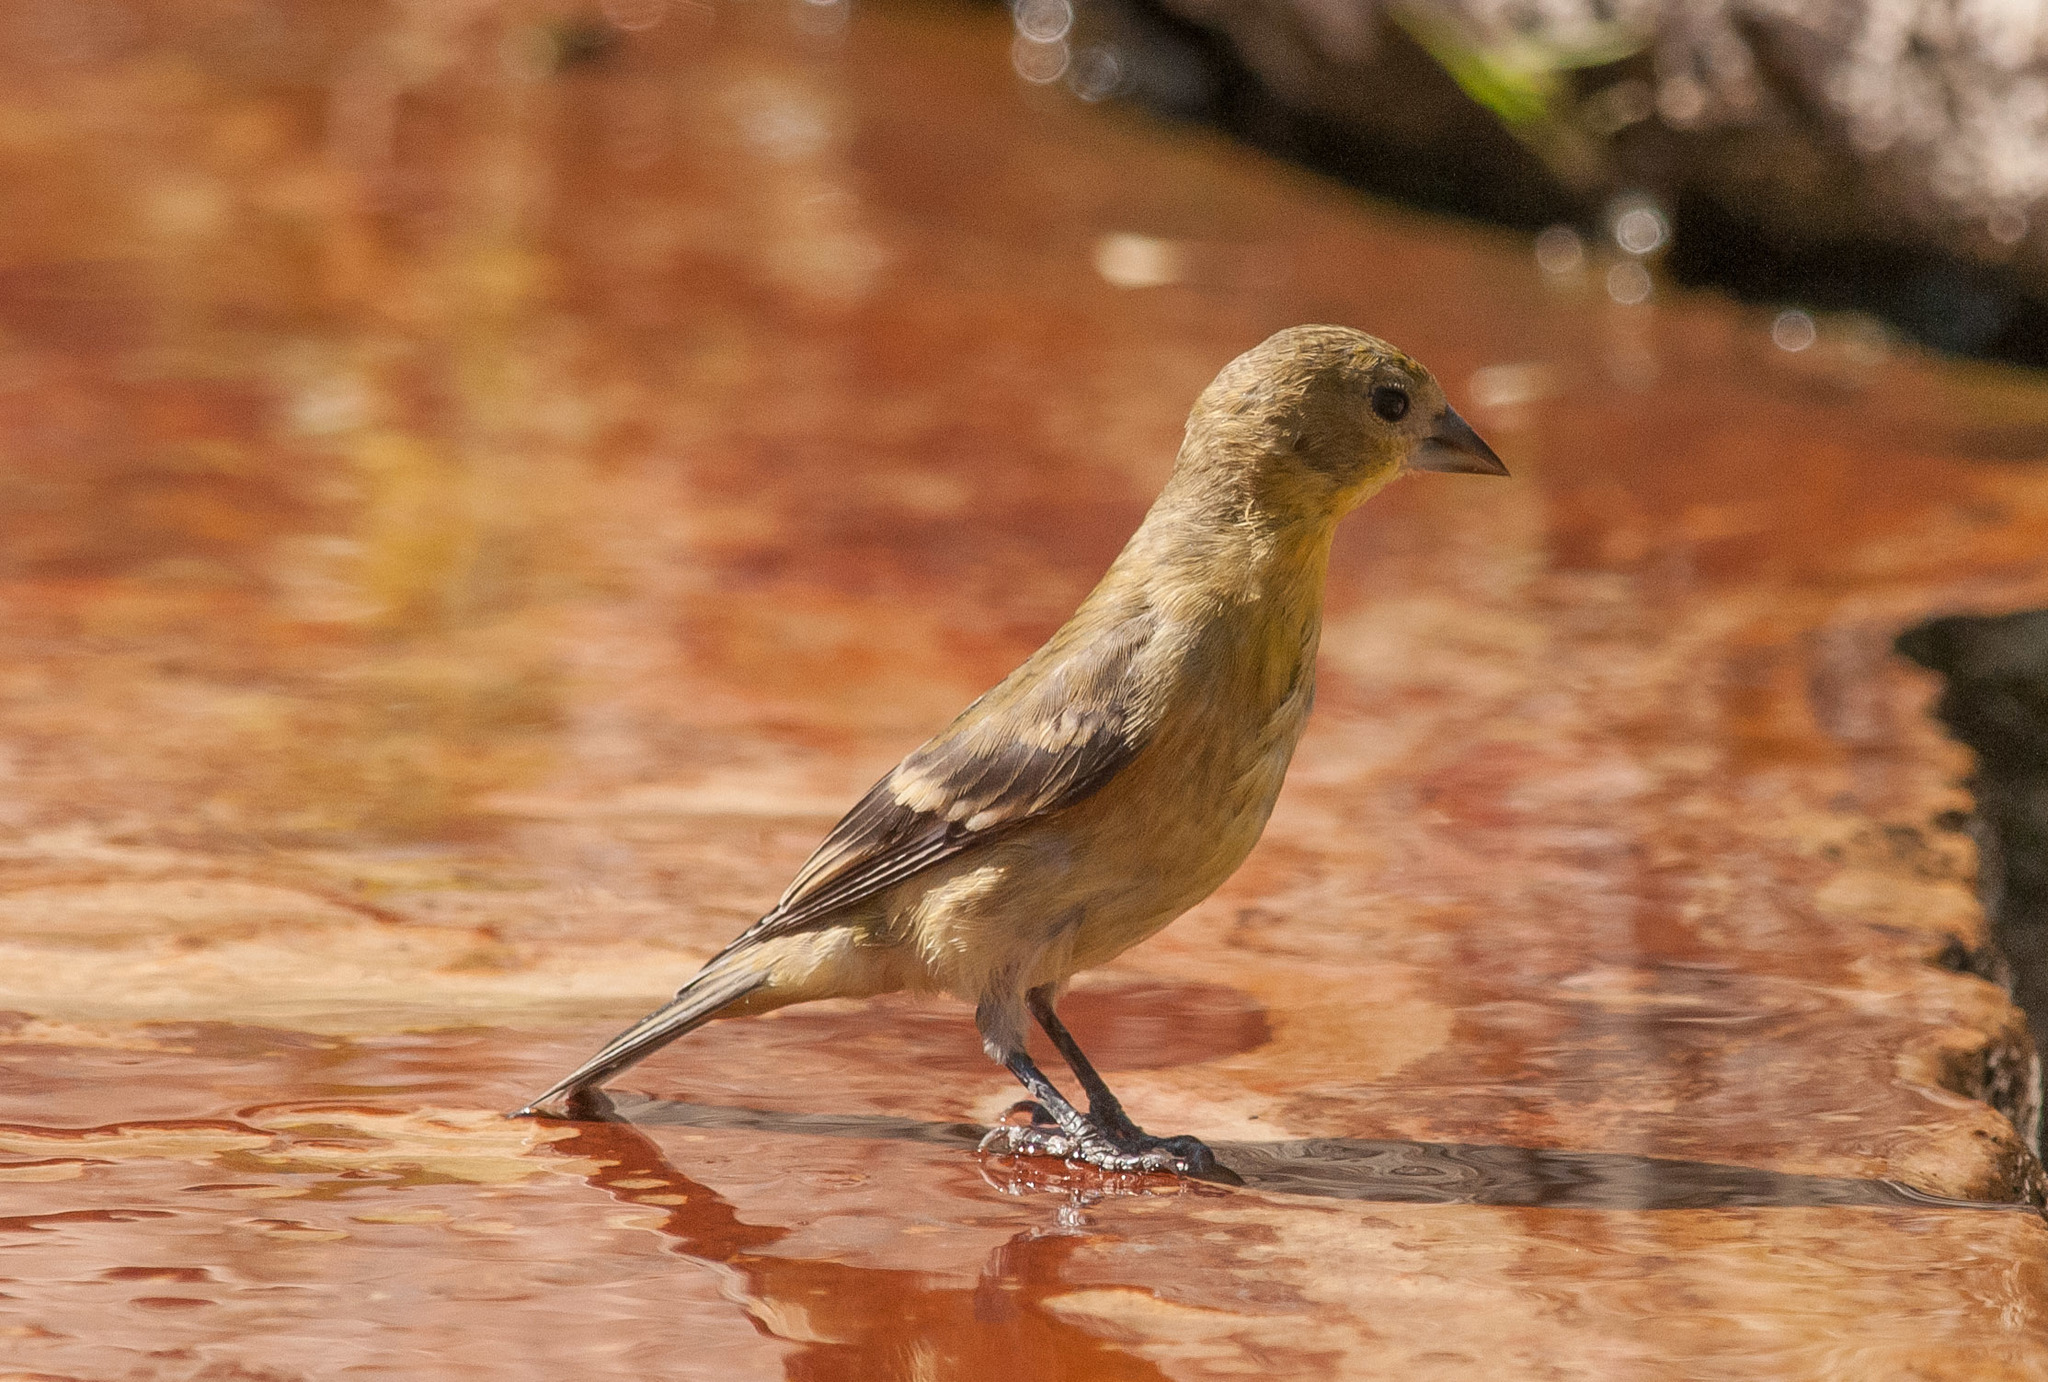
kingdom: Animalia
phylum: Chordata
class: Aves
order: Passeriformes
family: Fringillidae
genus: Spinus
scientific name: Spinus psaltria
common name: Lesser goldfinch
